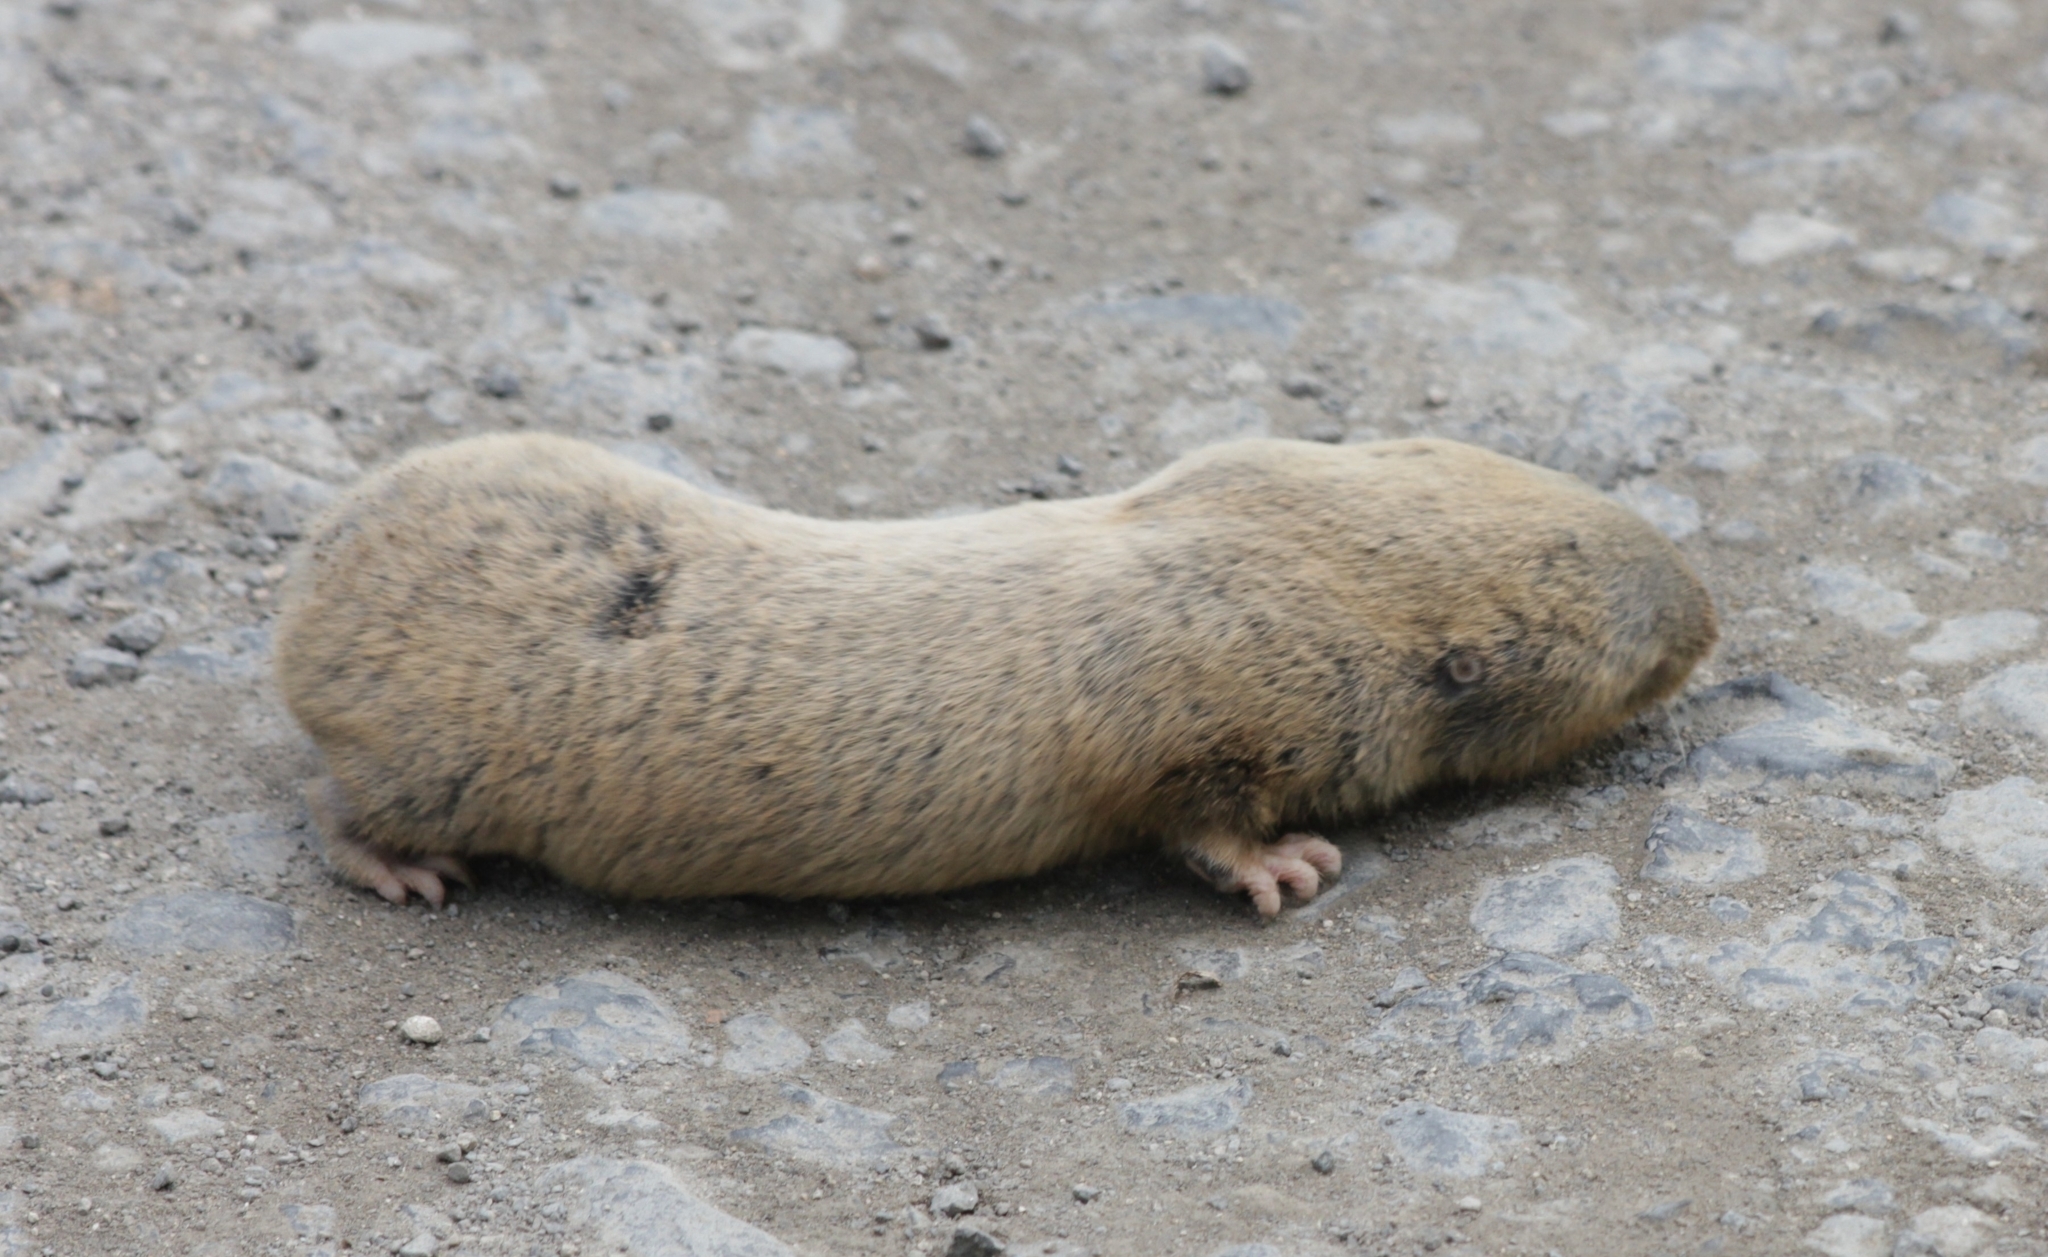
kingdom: Animalia
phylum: Chordata
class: Mammalia
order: Rodentia
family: Spalacidae
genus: Spalax
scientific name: Spalax microphthalmus
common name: Greater mole rat
